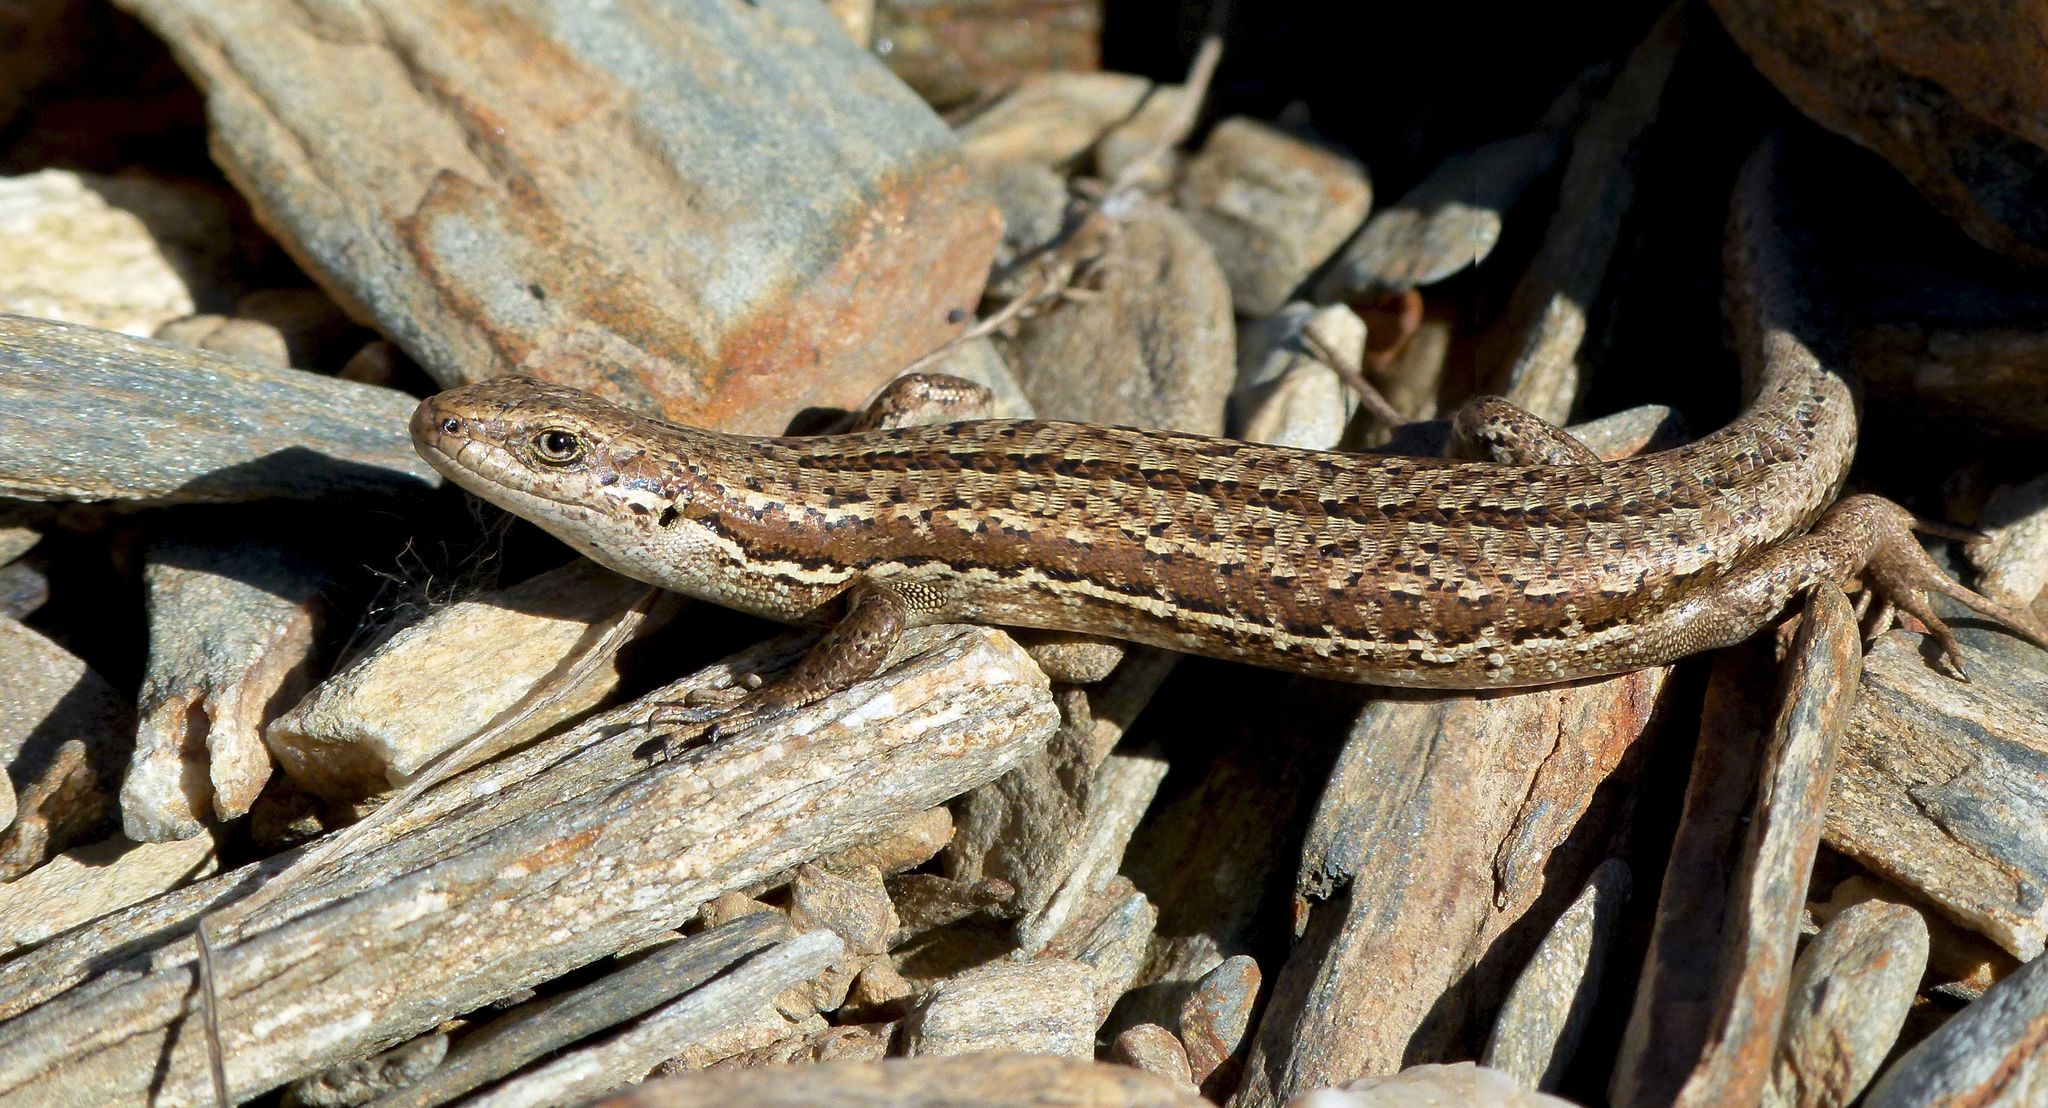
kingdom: Animalia
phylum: Chordata
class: Squamata
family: Scincidae
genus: Oligosoma
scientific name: Oligosoma maccanni
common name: Mccann’s skink
